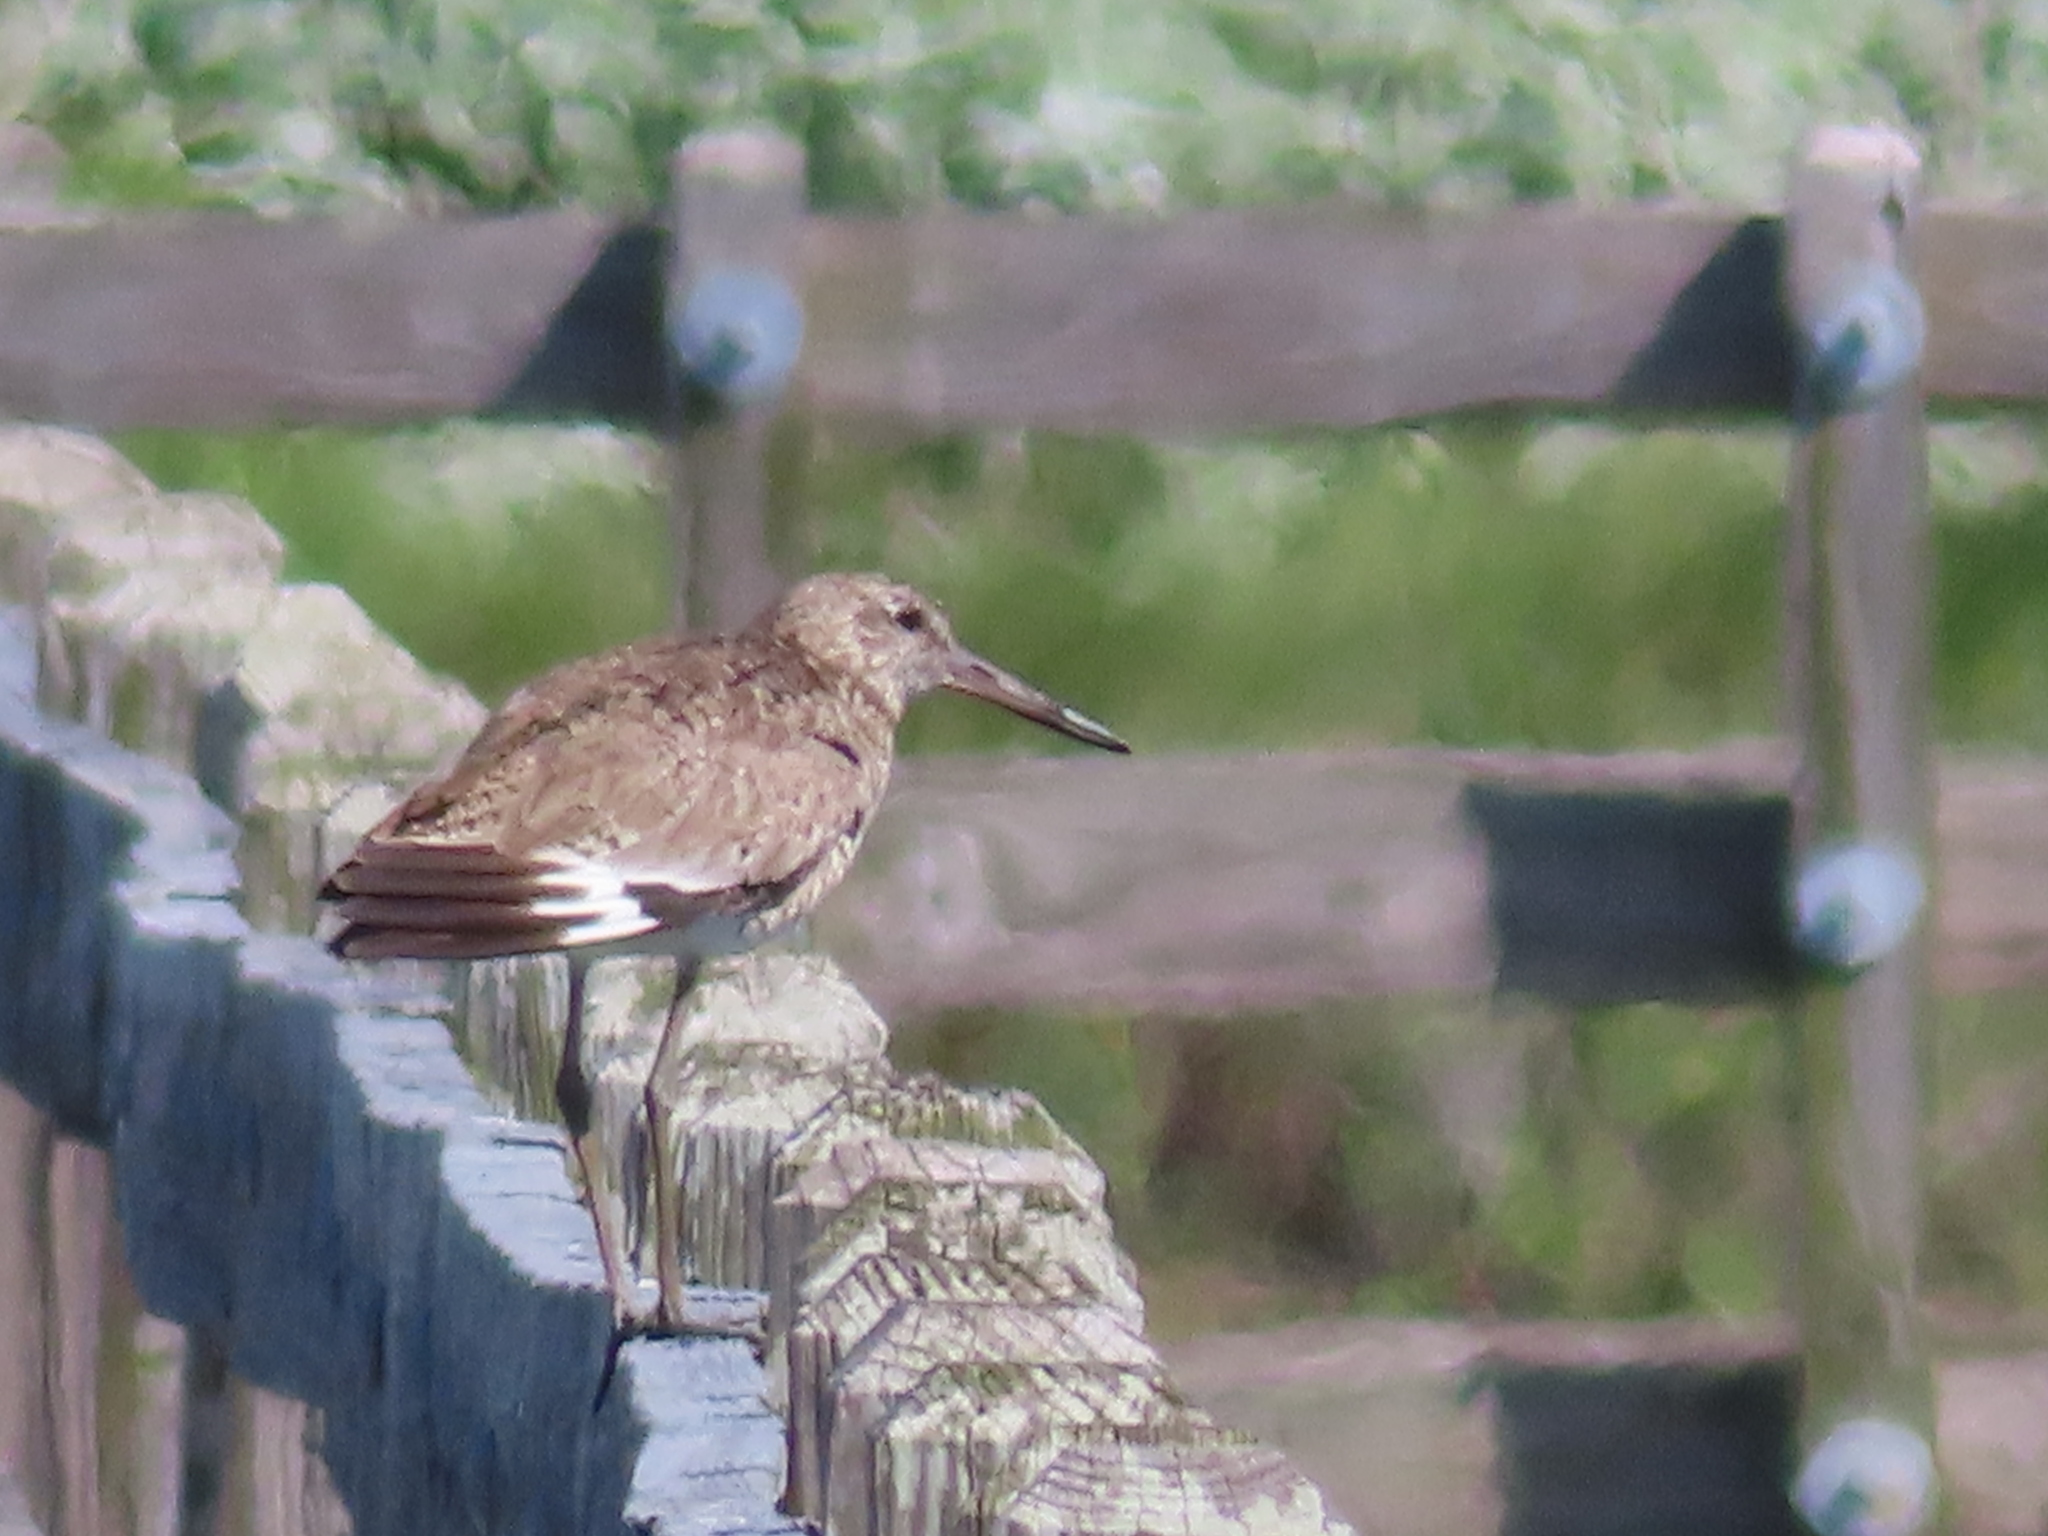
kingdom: Animalia
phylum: Chordata
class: Aves
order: Charadriiformes
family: Scolopacidae
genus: Tringa
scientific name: Tringa semipalmata
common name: Willet
